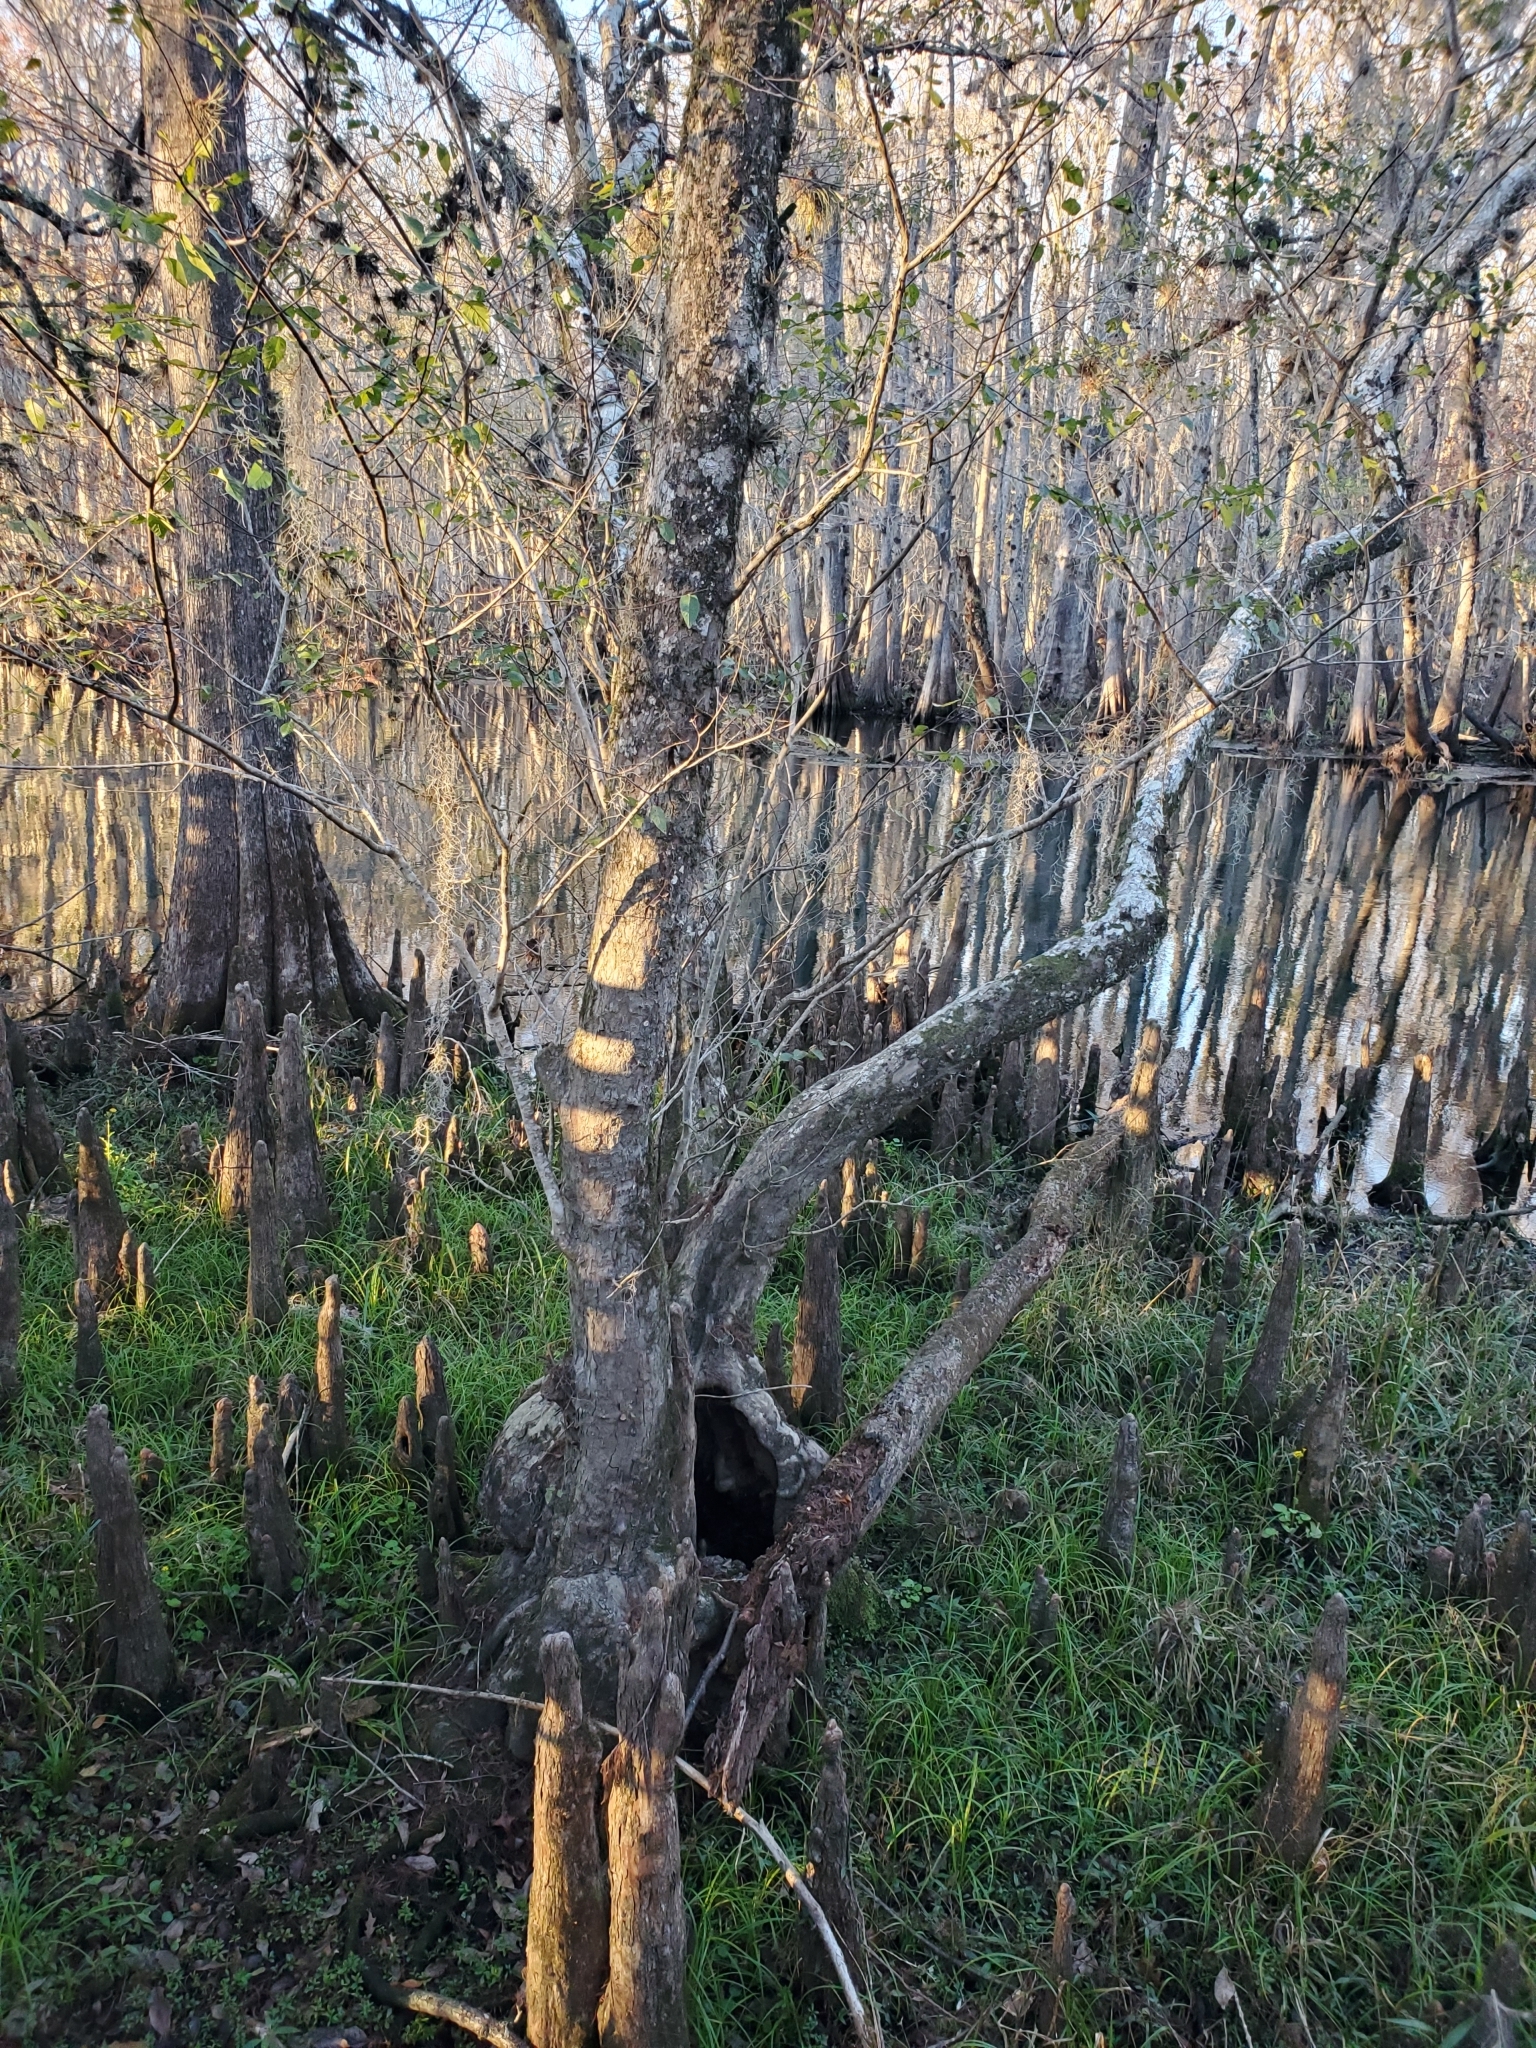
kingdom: Plantae
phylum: Tracheophyta
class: Pinopsida
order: Pinales
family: Cupressaceae
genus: Taxodium
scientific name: Taxodium distichum
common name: Bald cypress
